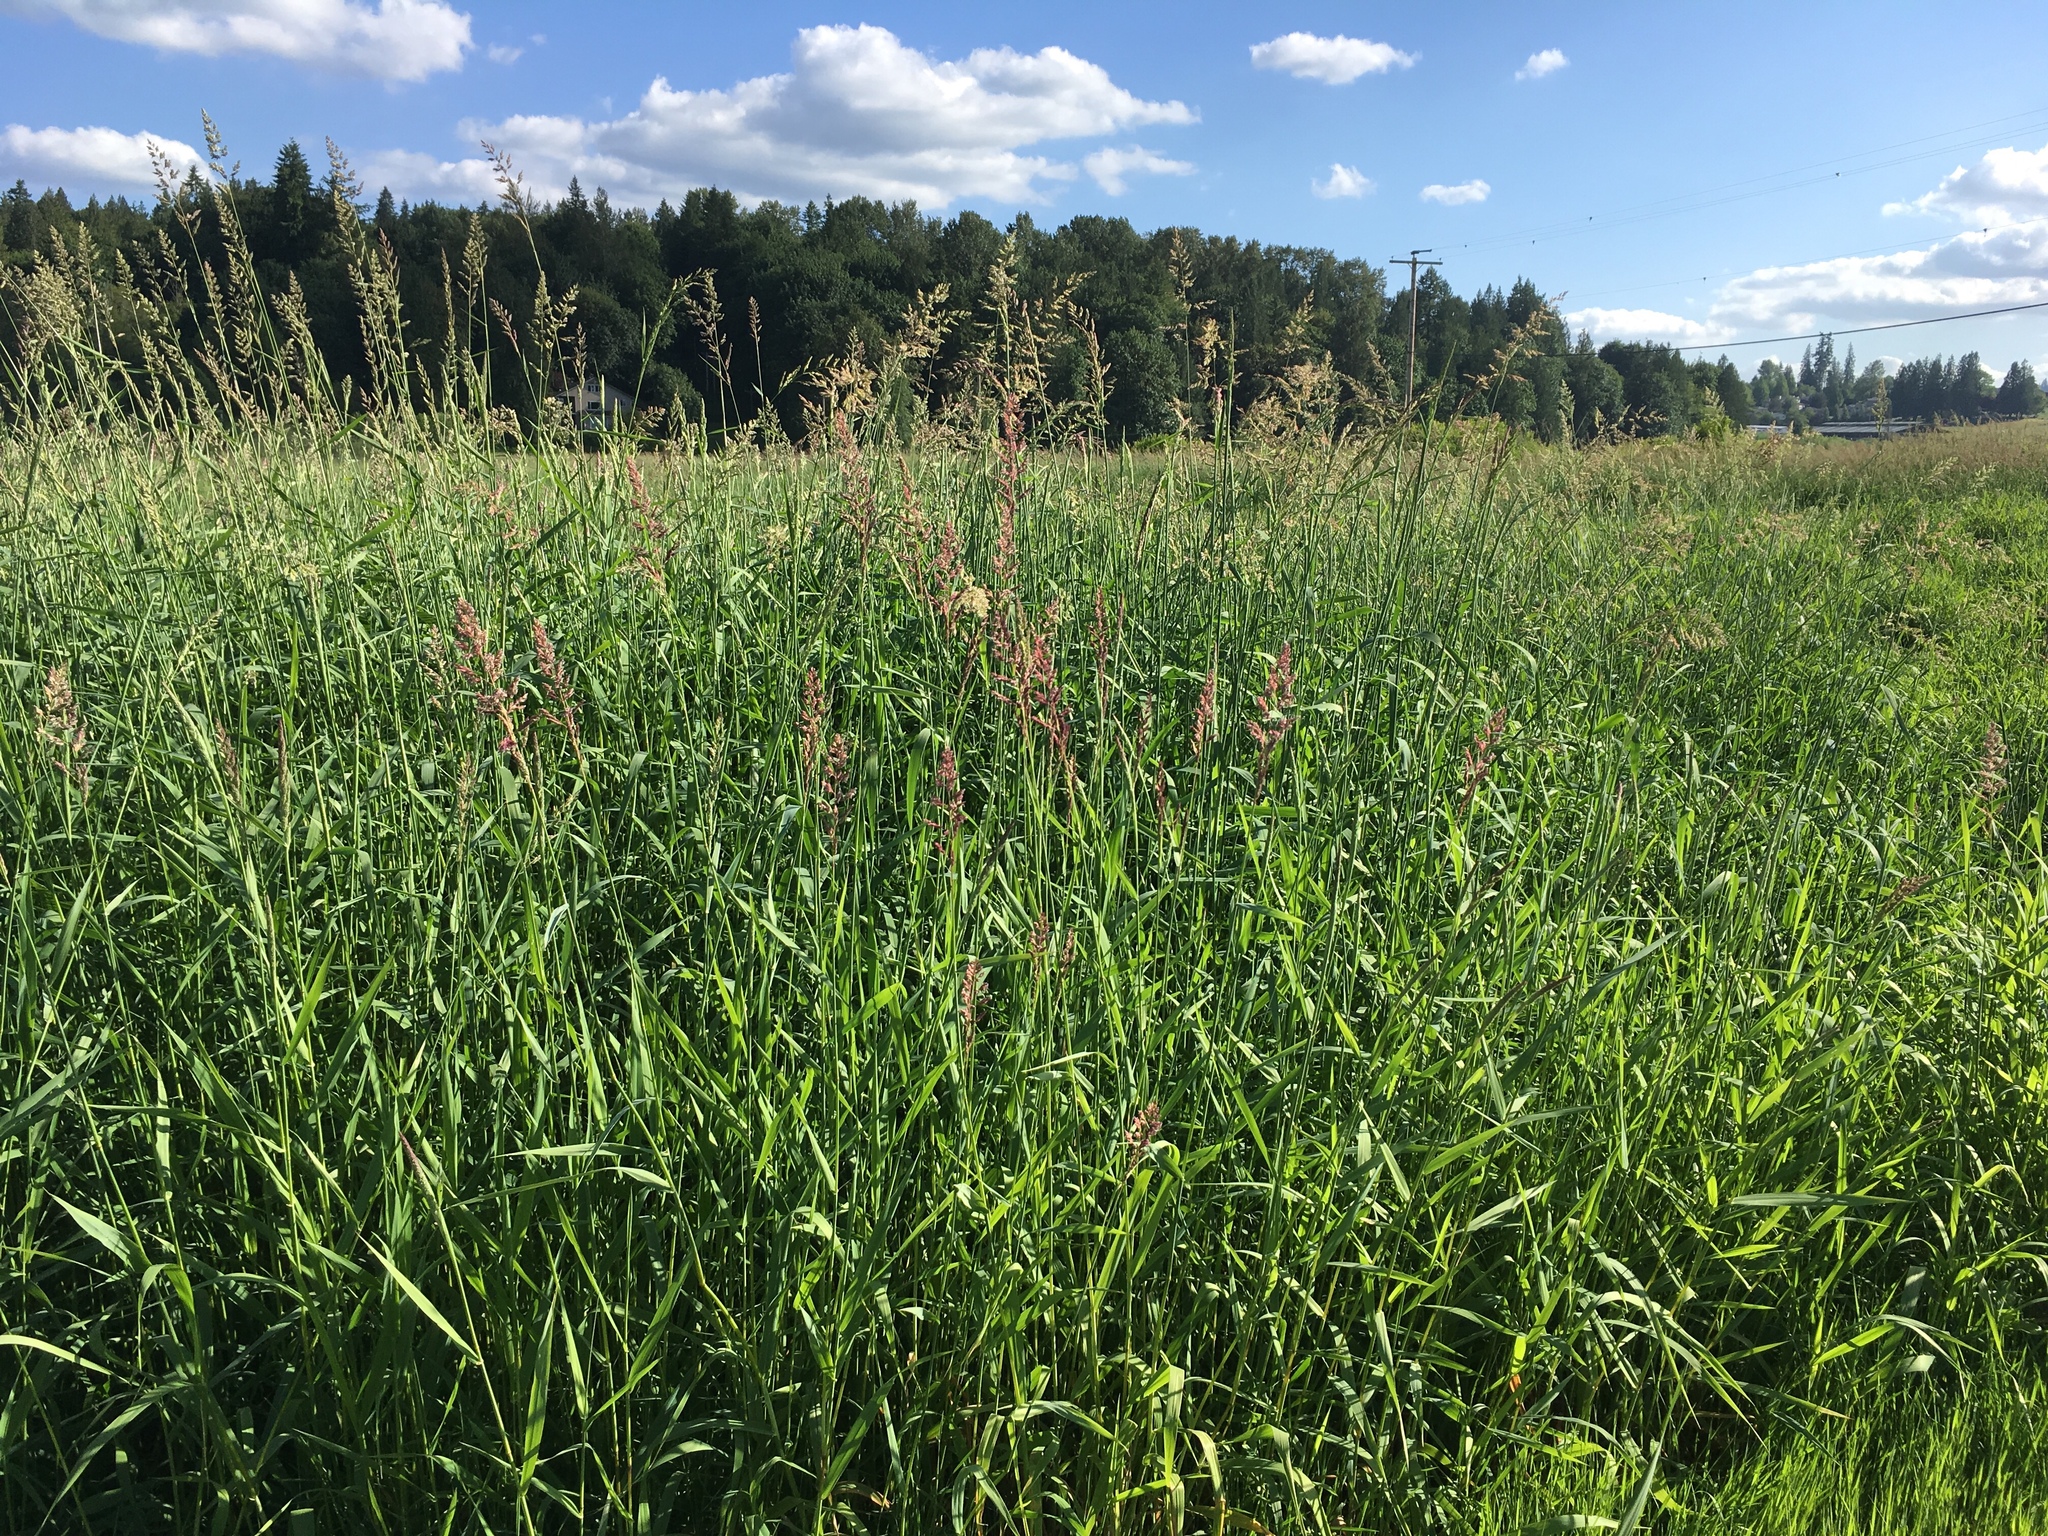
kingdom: Plantae
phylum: Tracheophyta
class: Liliopsida
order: Poales
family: Poaceae
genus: Phalaris
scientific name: Phalaris arundinacea
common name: Reed canary-grass
